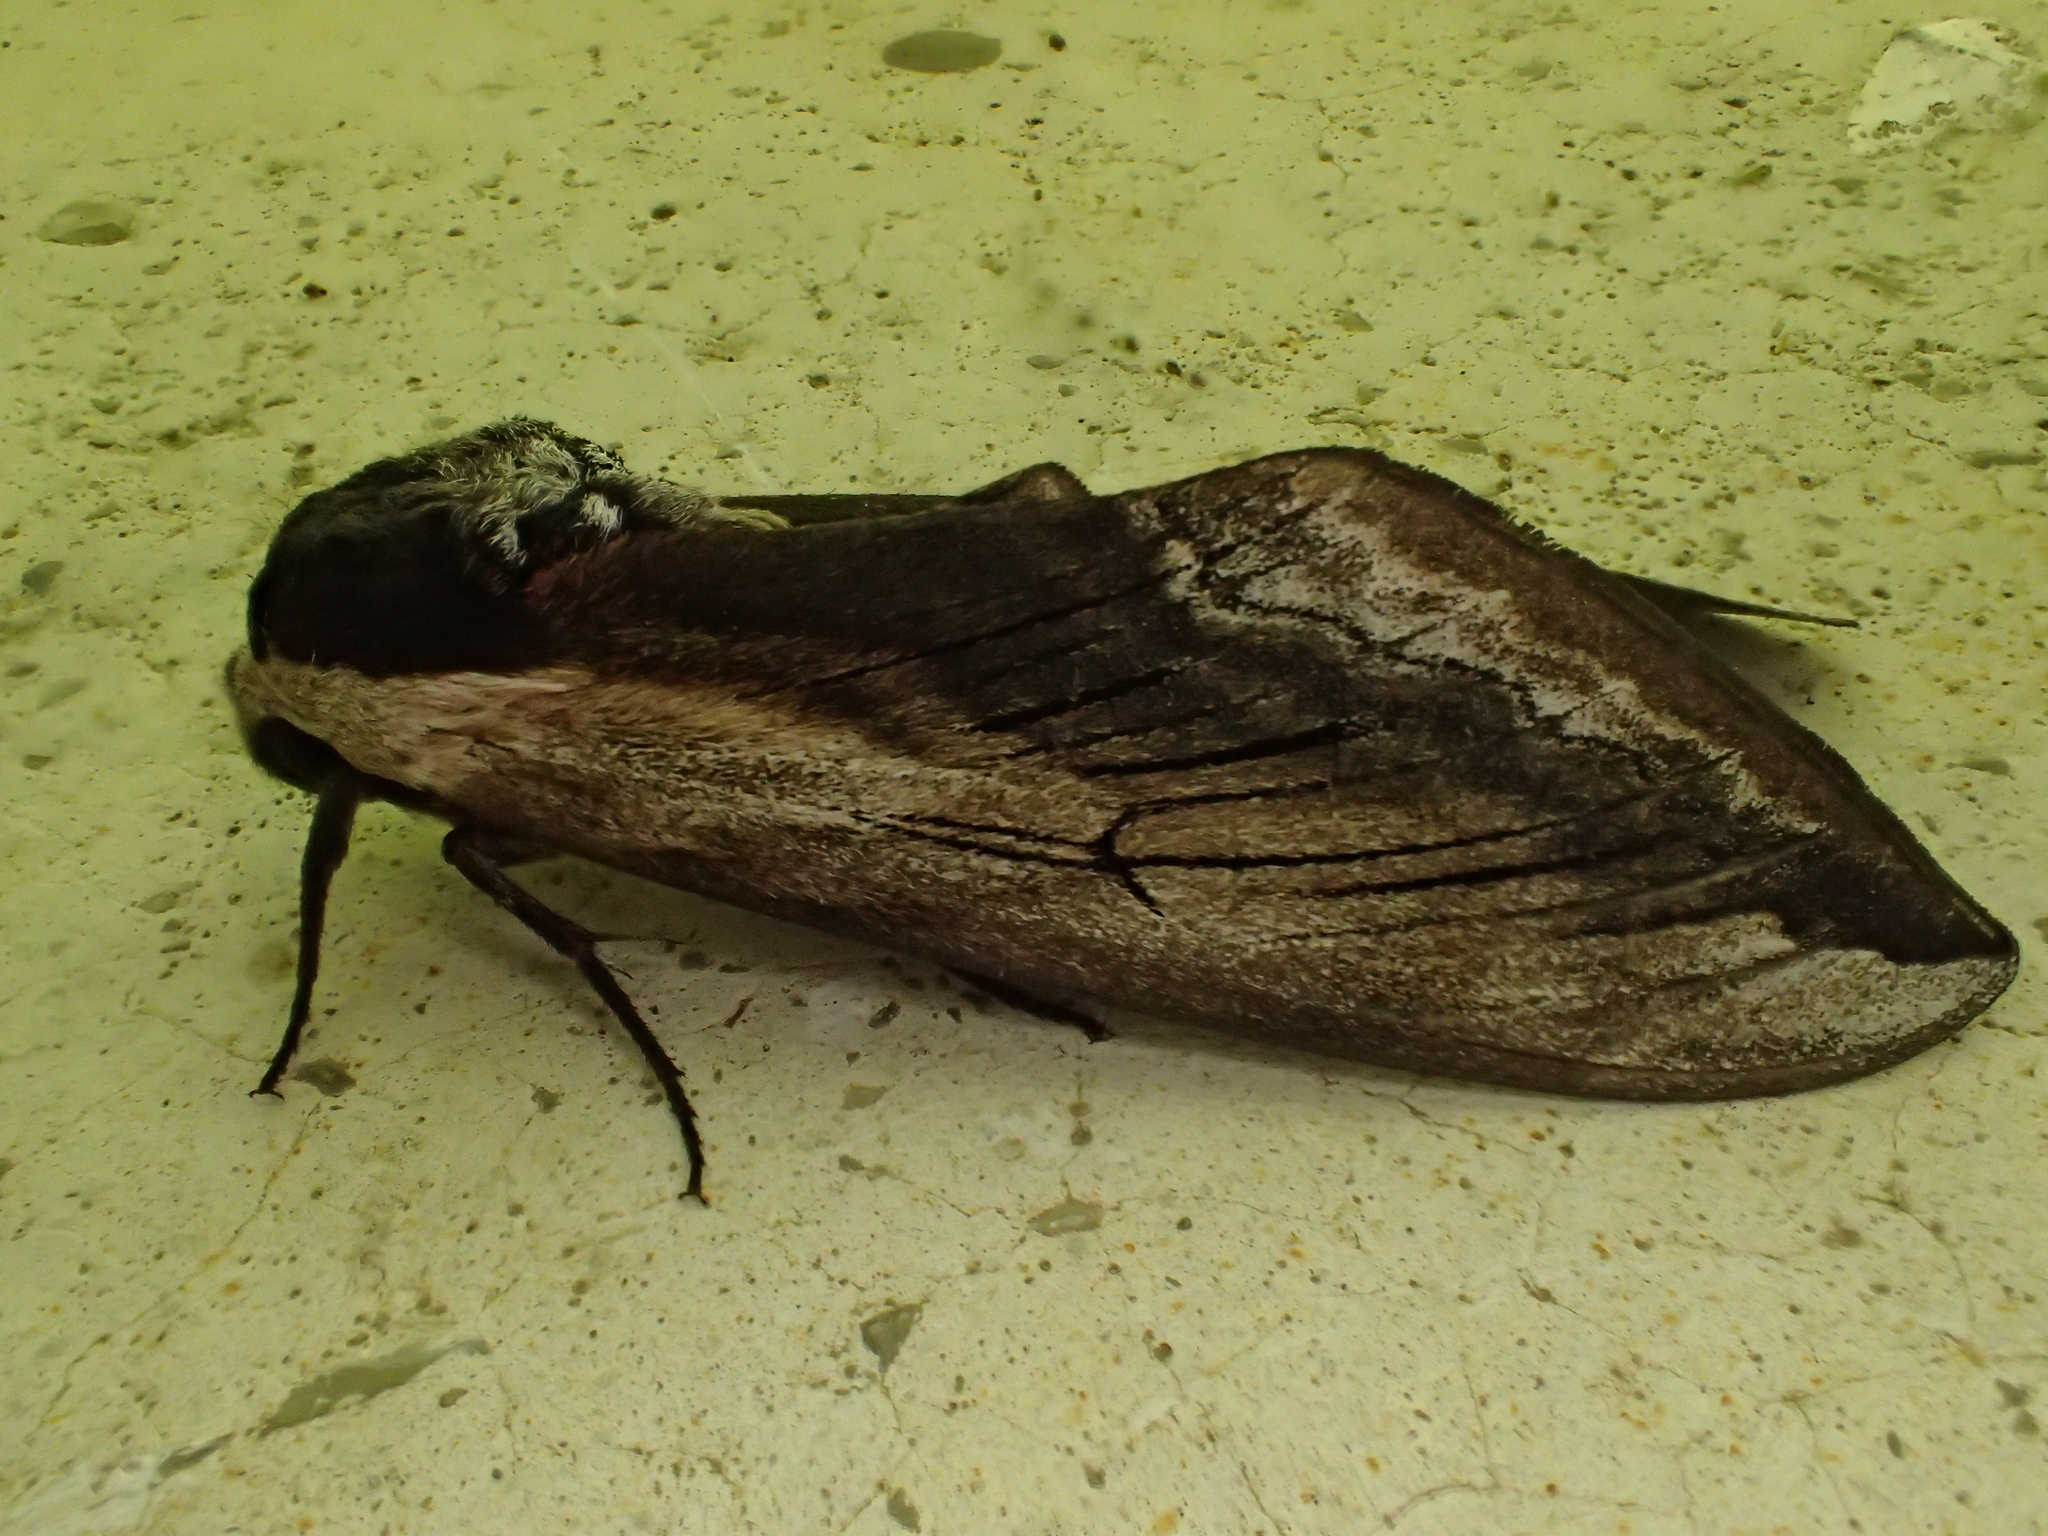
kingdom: Animalia
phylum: Arthropoda
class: Insecta
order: Lepidoptera
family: Sphingidae
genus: Sphinx
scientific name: Sphinx ligustri
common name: Privet hawk-moth
